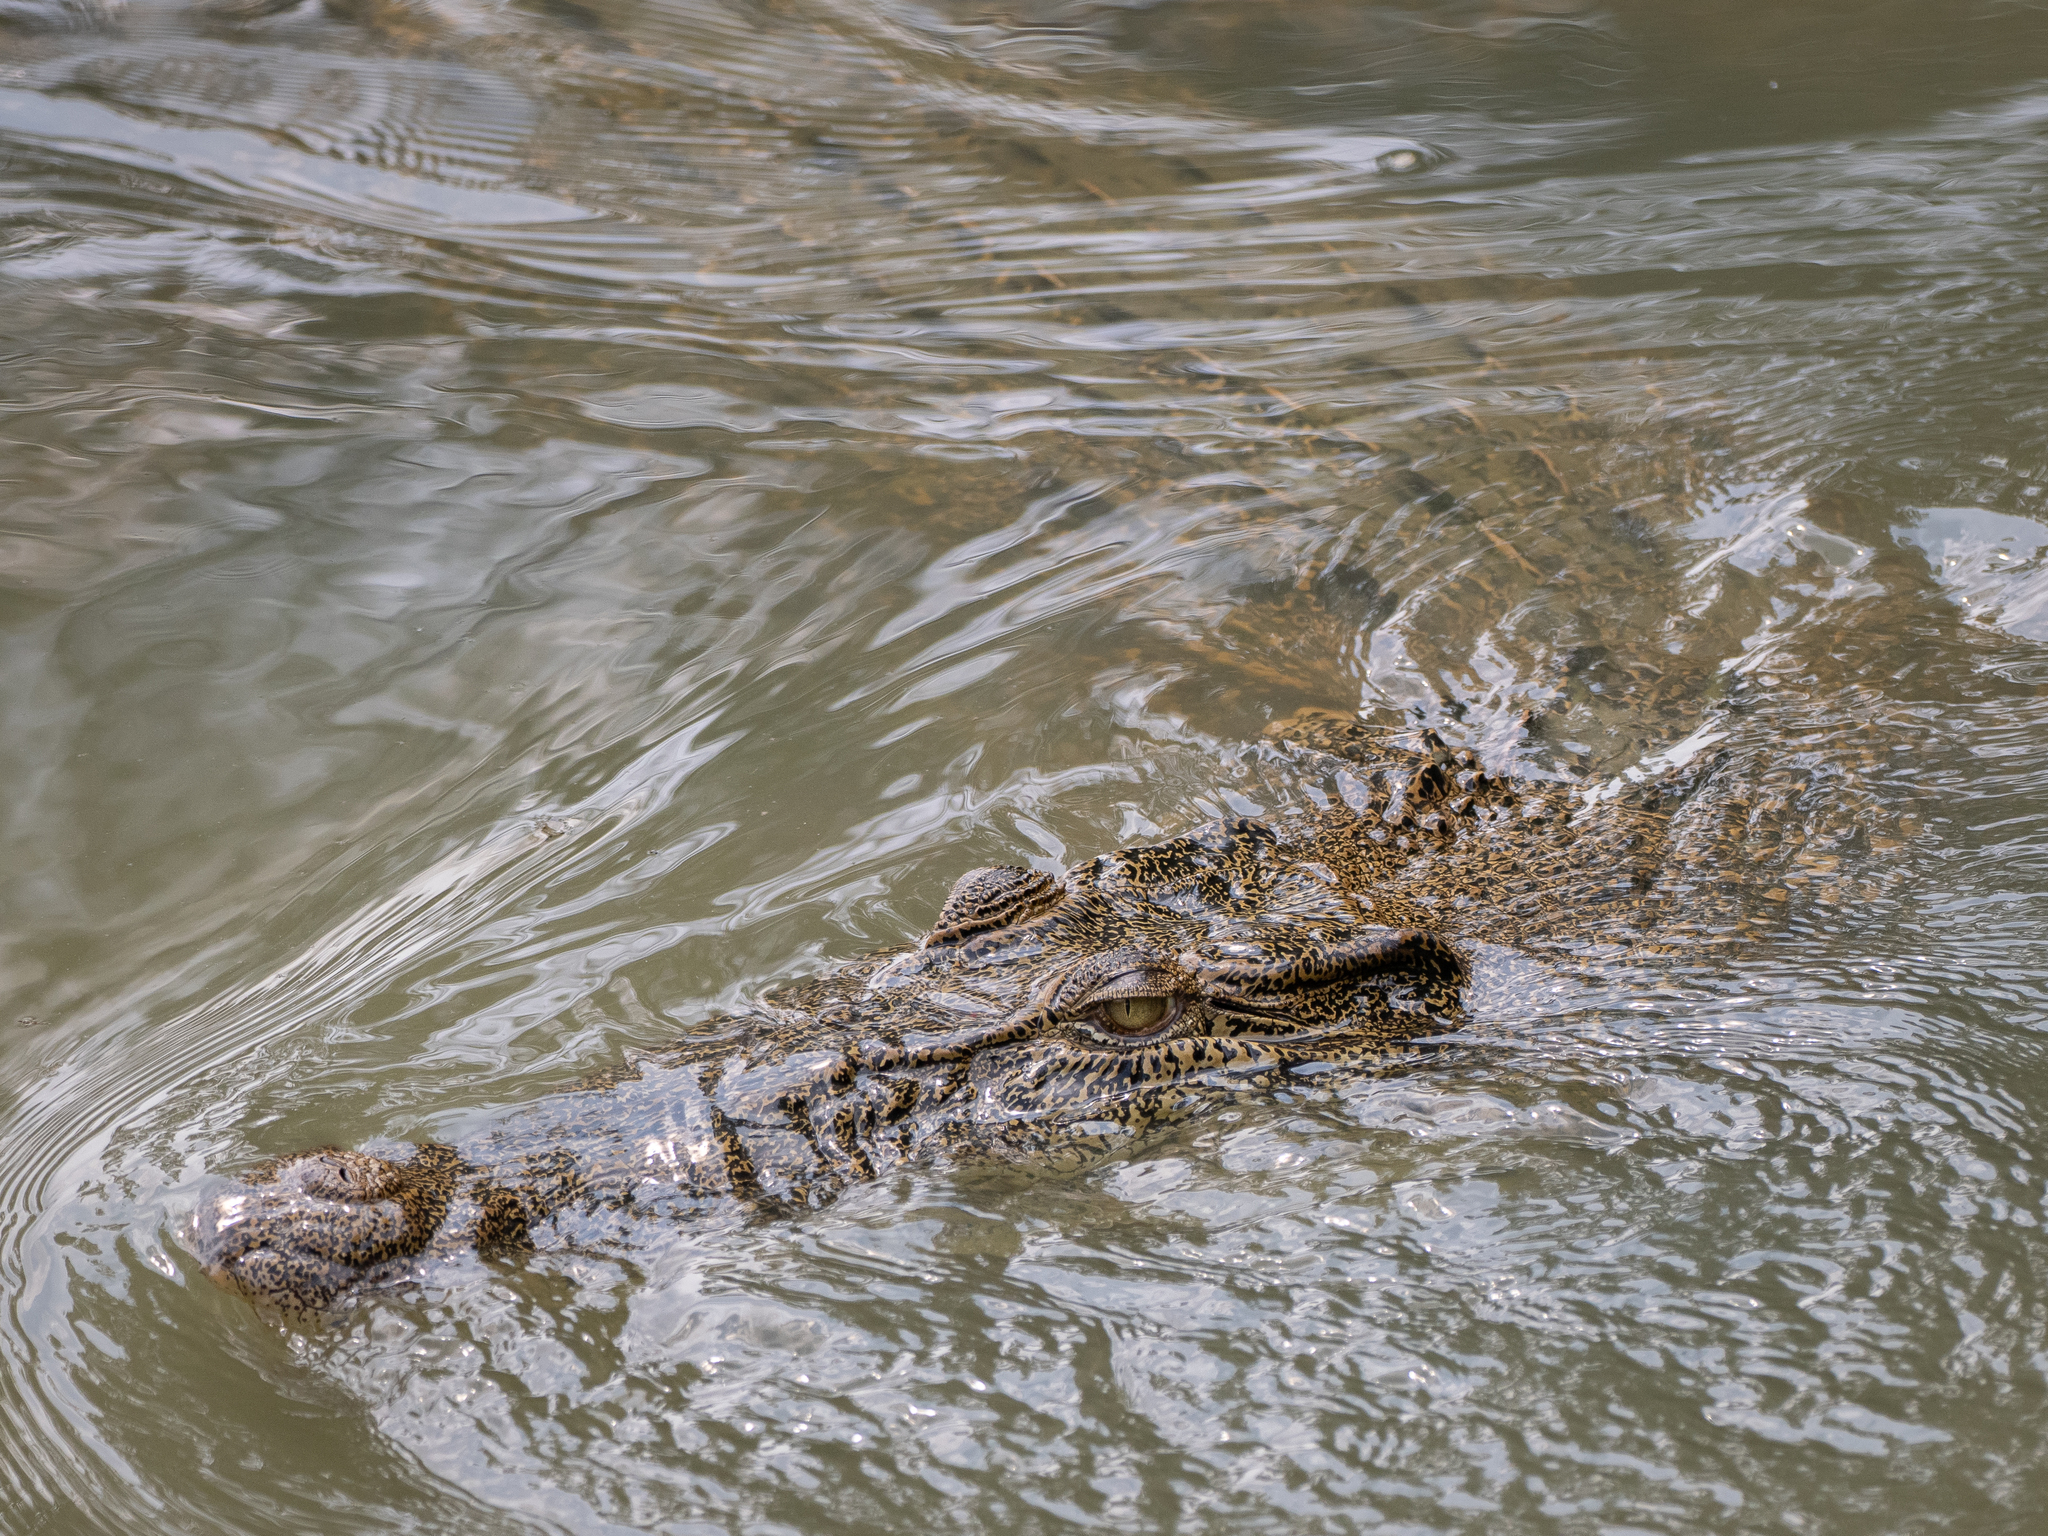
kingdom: Animalia
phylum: Chordata
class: Crocodylia
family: Crocodylidae
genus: Crocodylus
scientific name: Crocodylus porosus
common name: Saltwater crocodile
